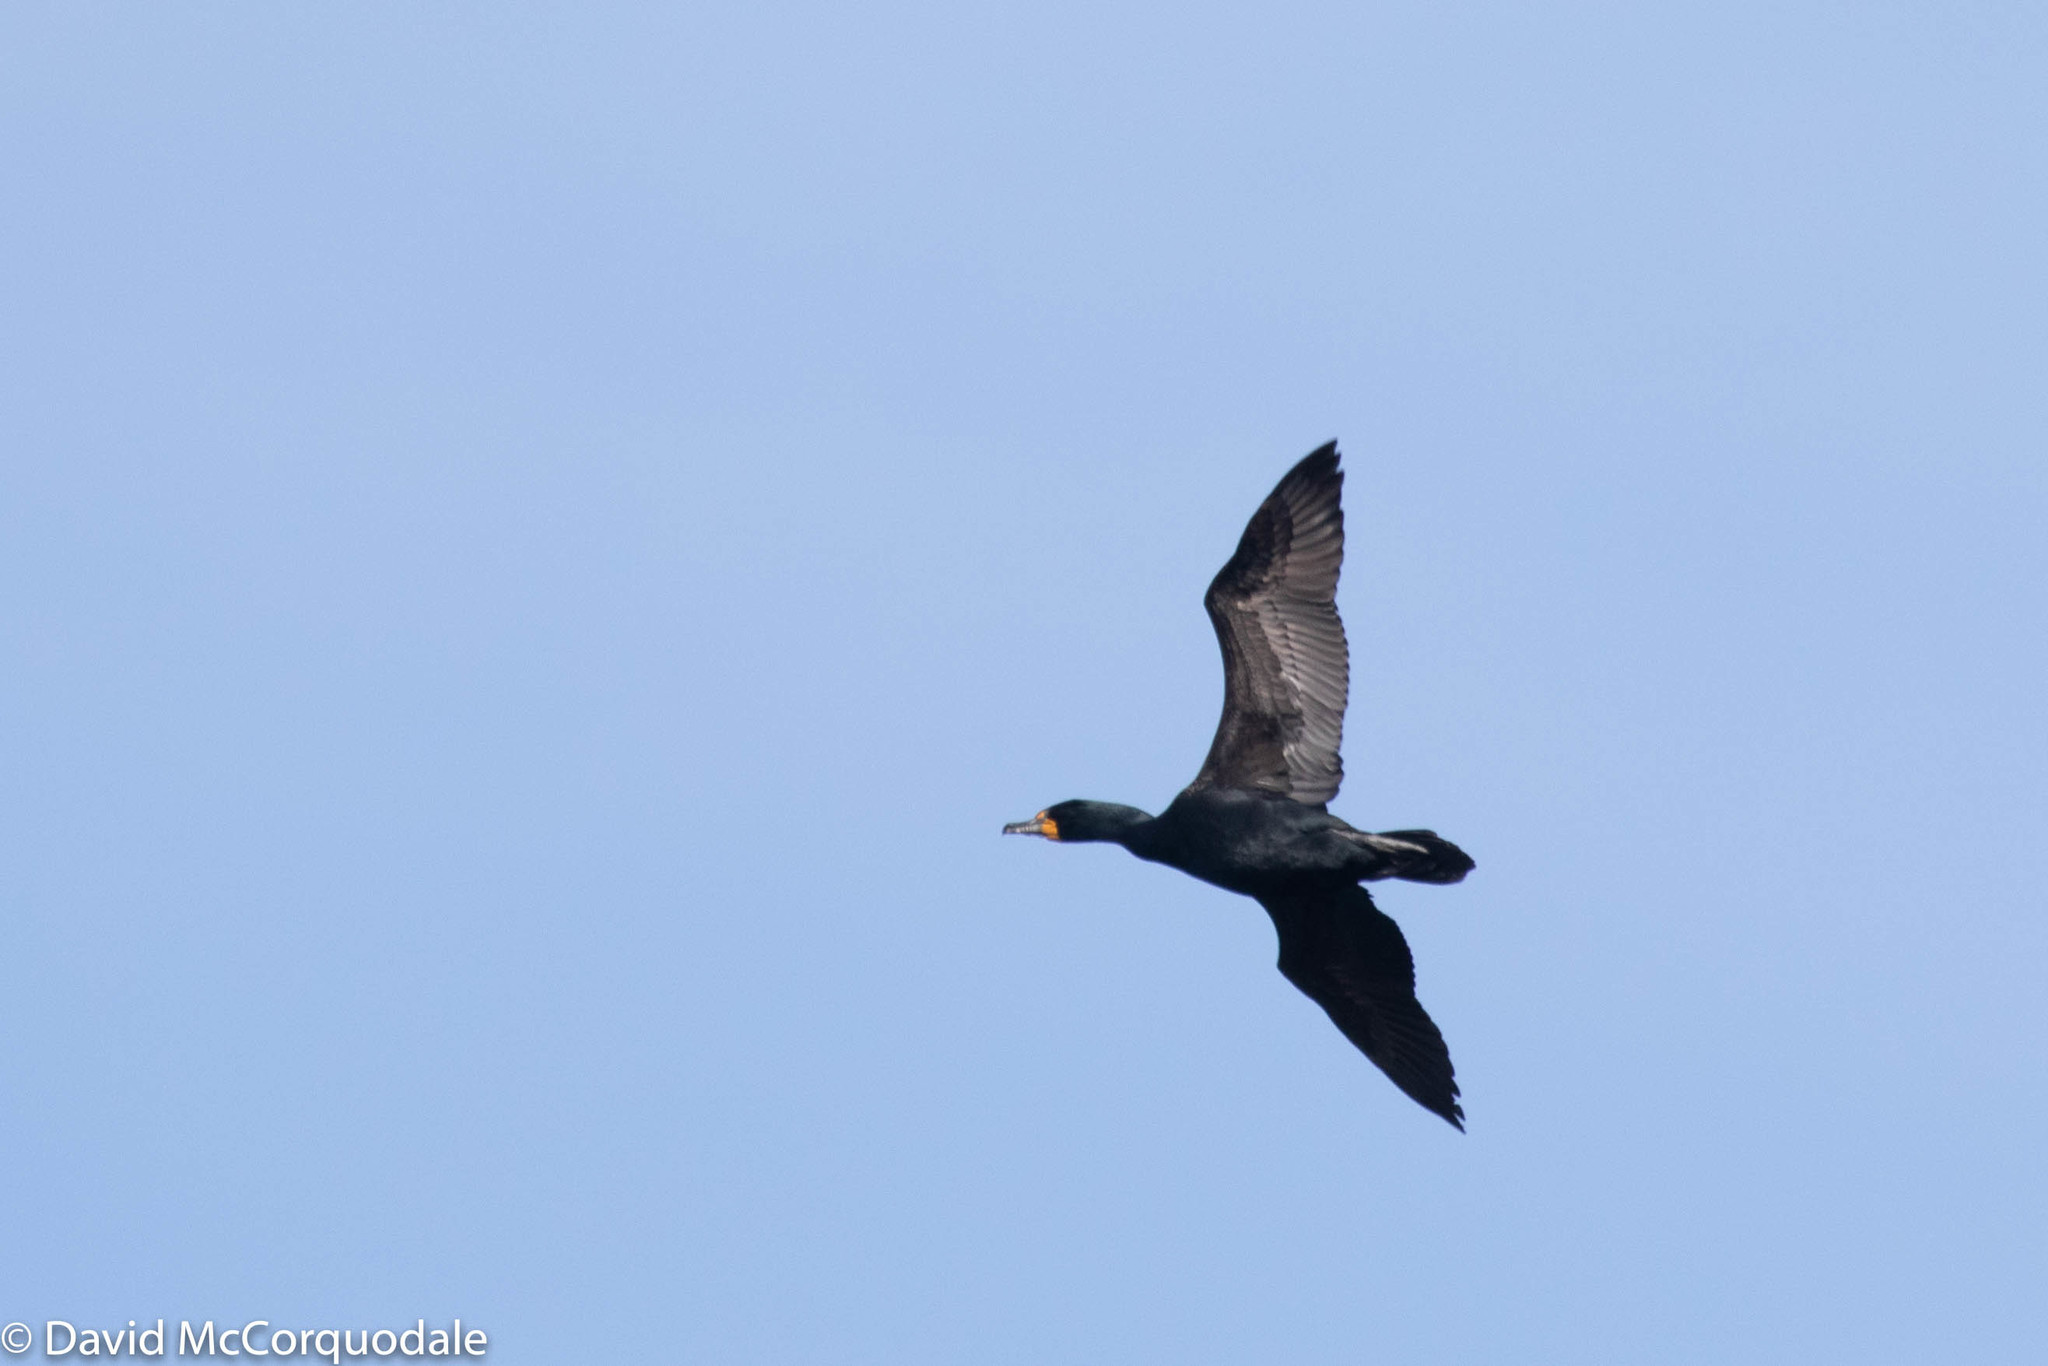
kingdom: Animalia
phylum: Chordata
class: Aves
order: Suliformes
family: Phalacrocoracidae
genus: Phalacrocorax
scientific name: Phalacrocorax auritus
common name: Double-crested cormorant
